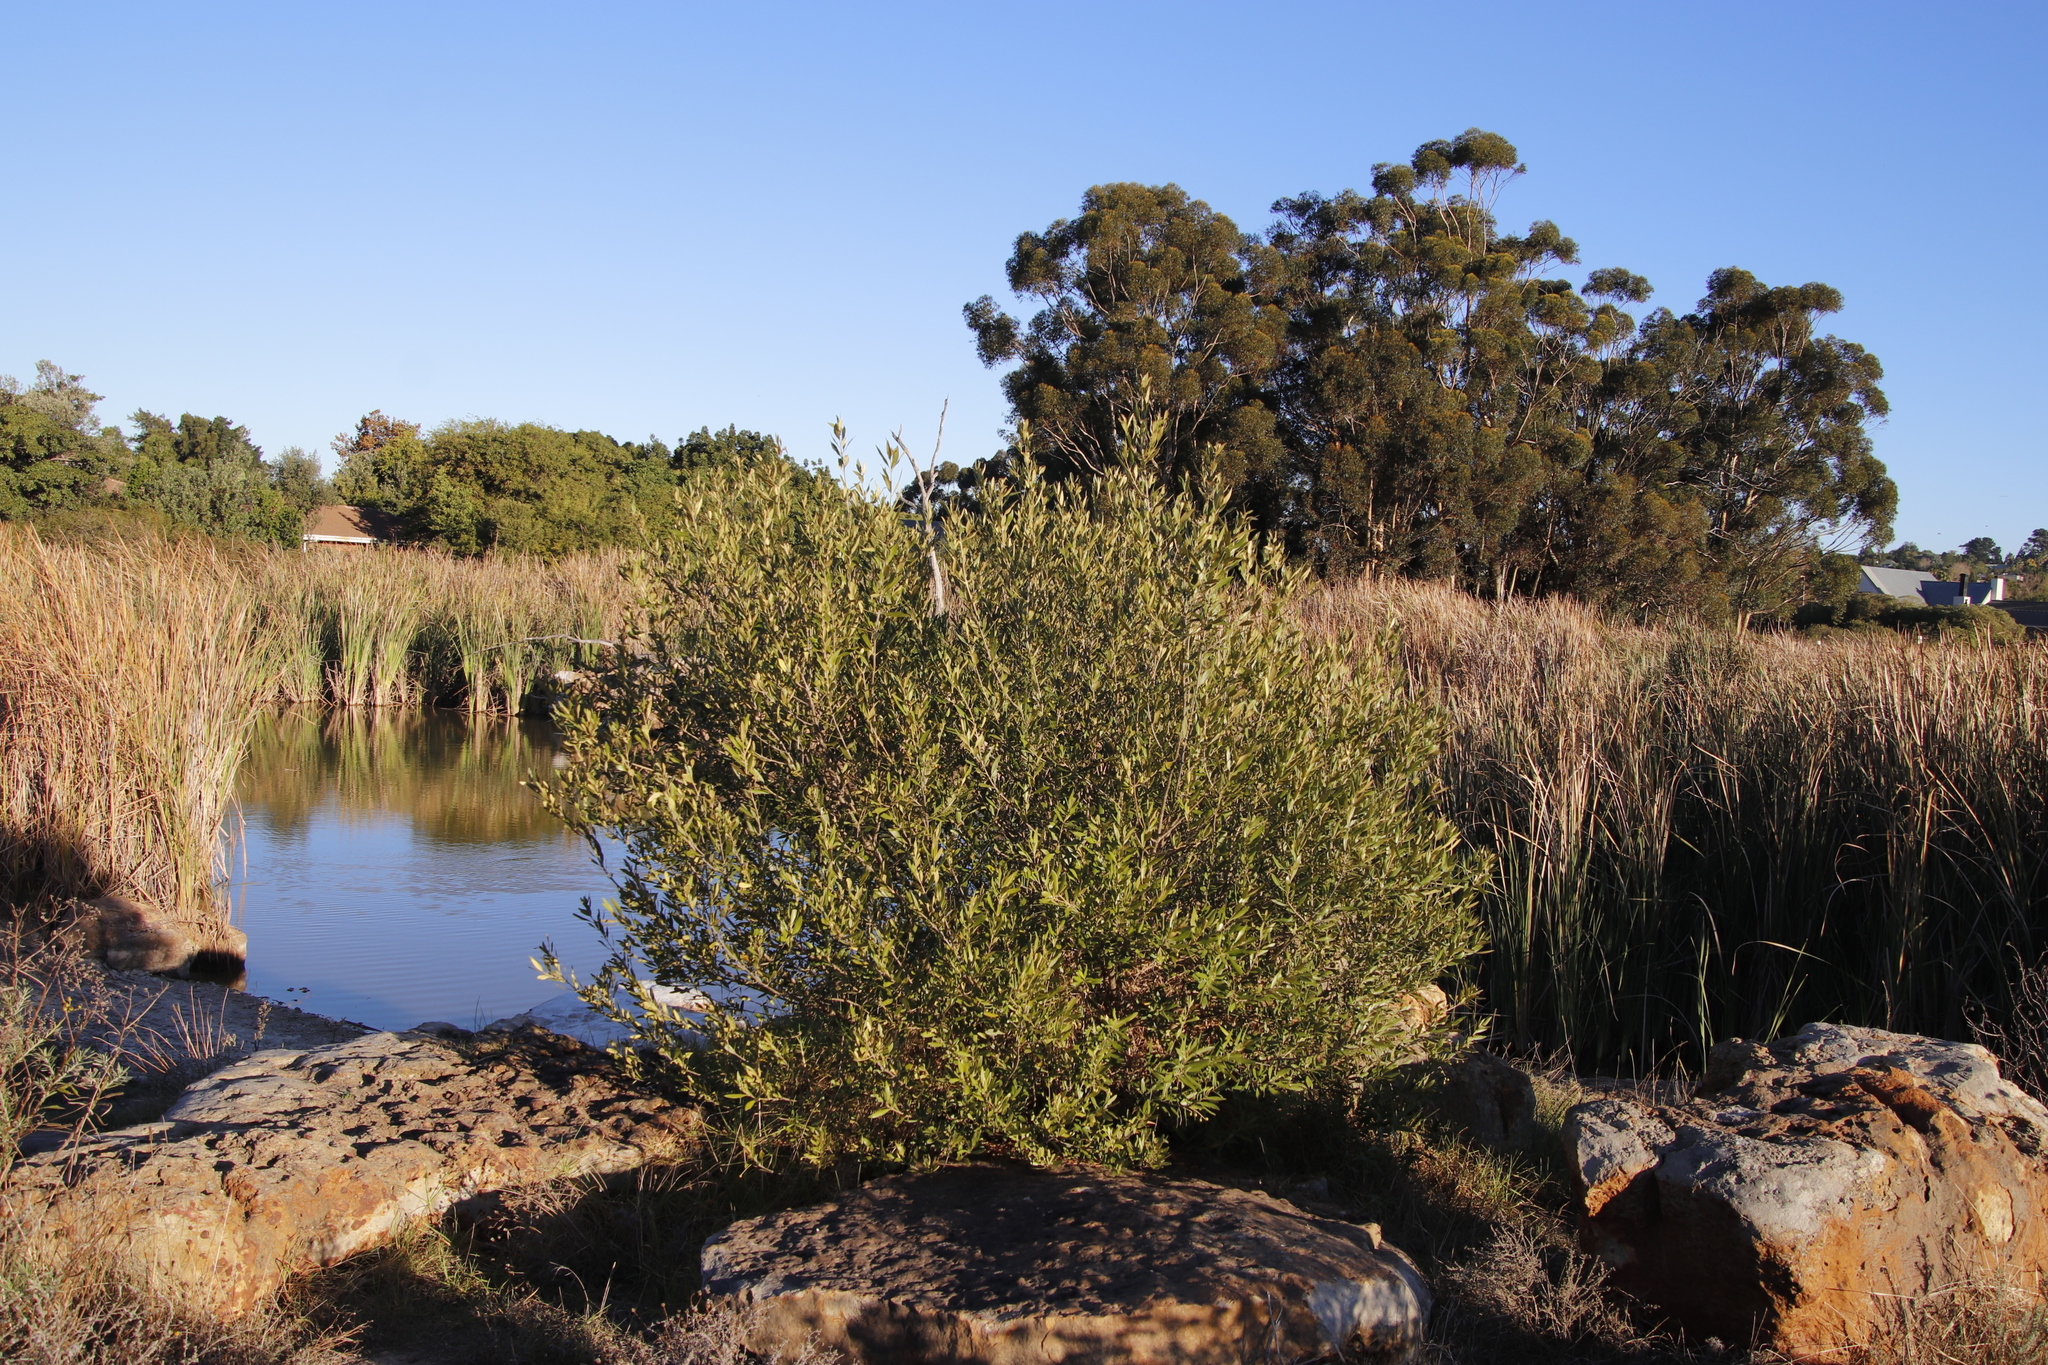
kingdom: Plantae
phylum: Tracheophyta
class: Magnoliopsida
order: Lamiales
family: Oleaceae
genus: Olea
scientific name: Olea europaea
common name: Olive
